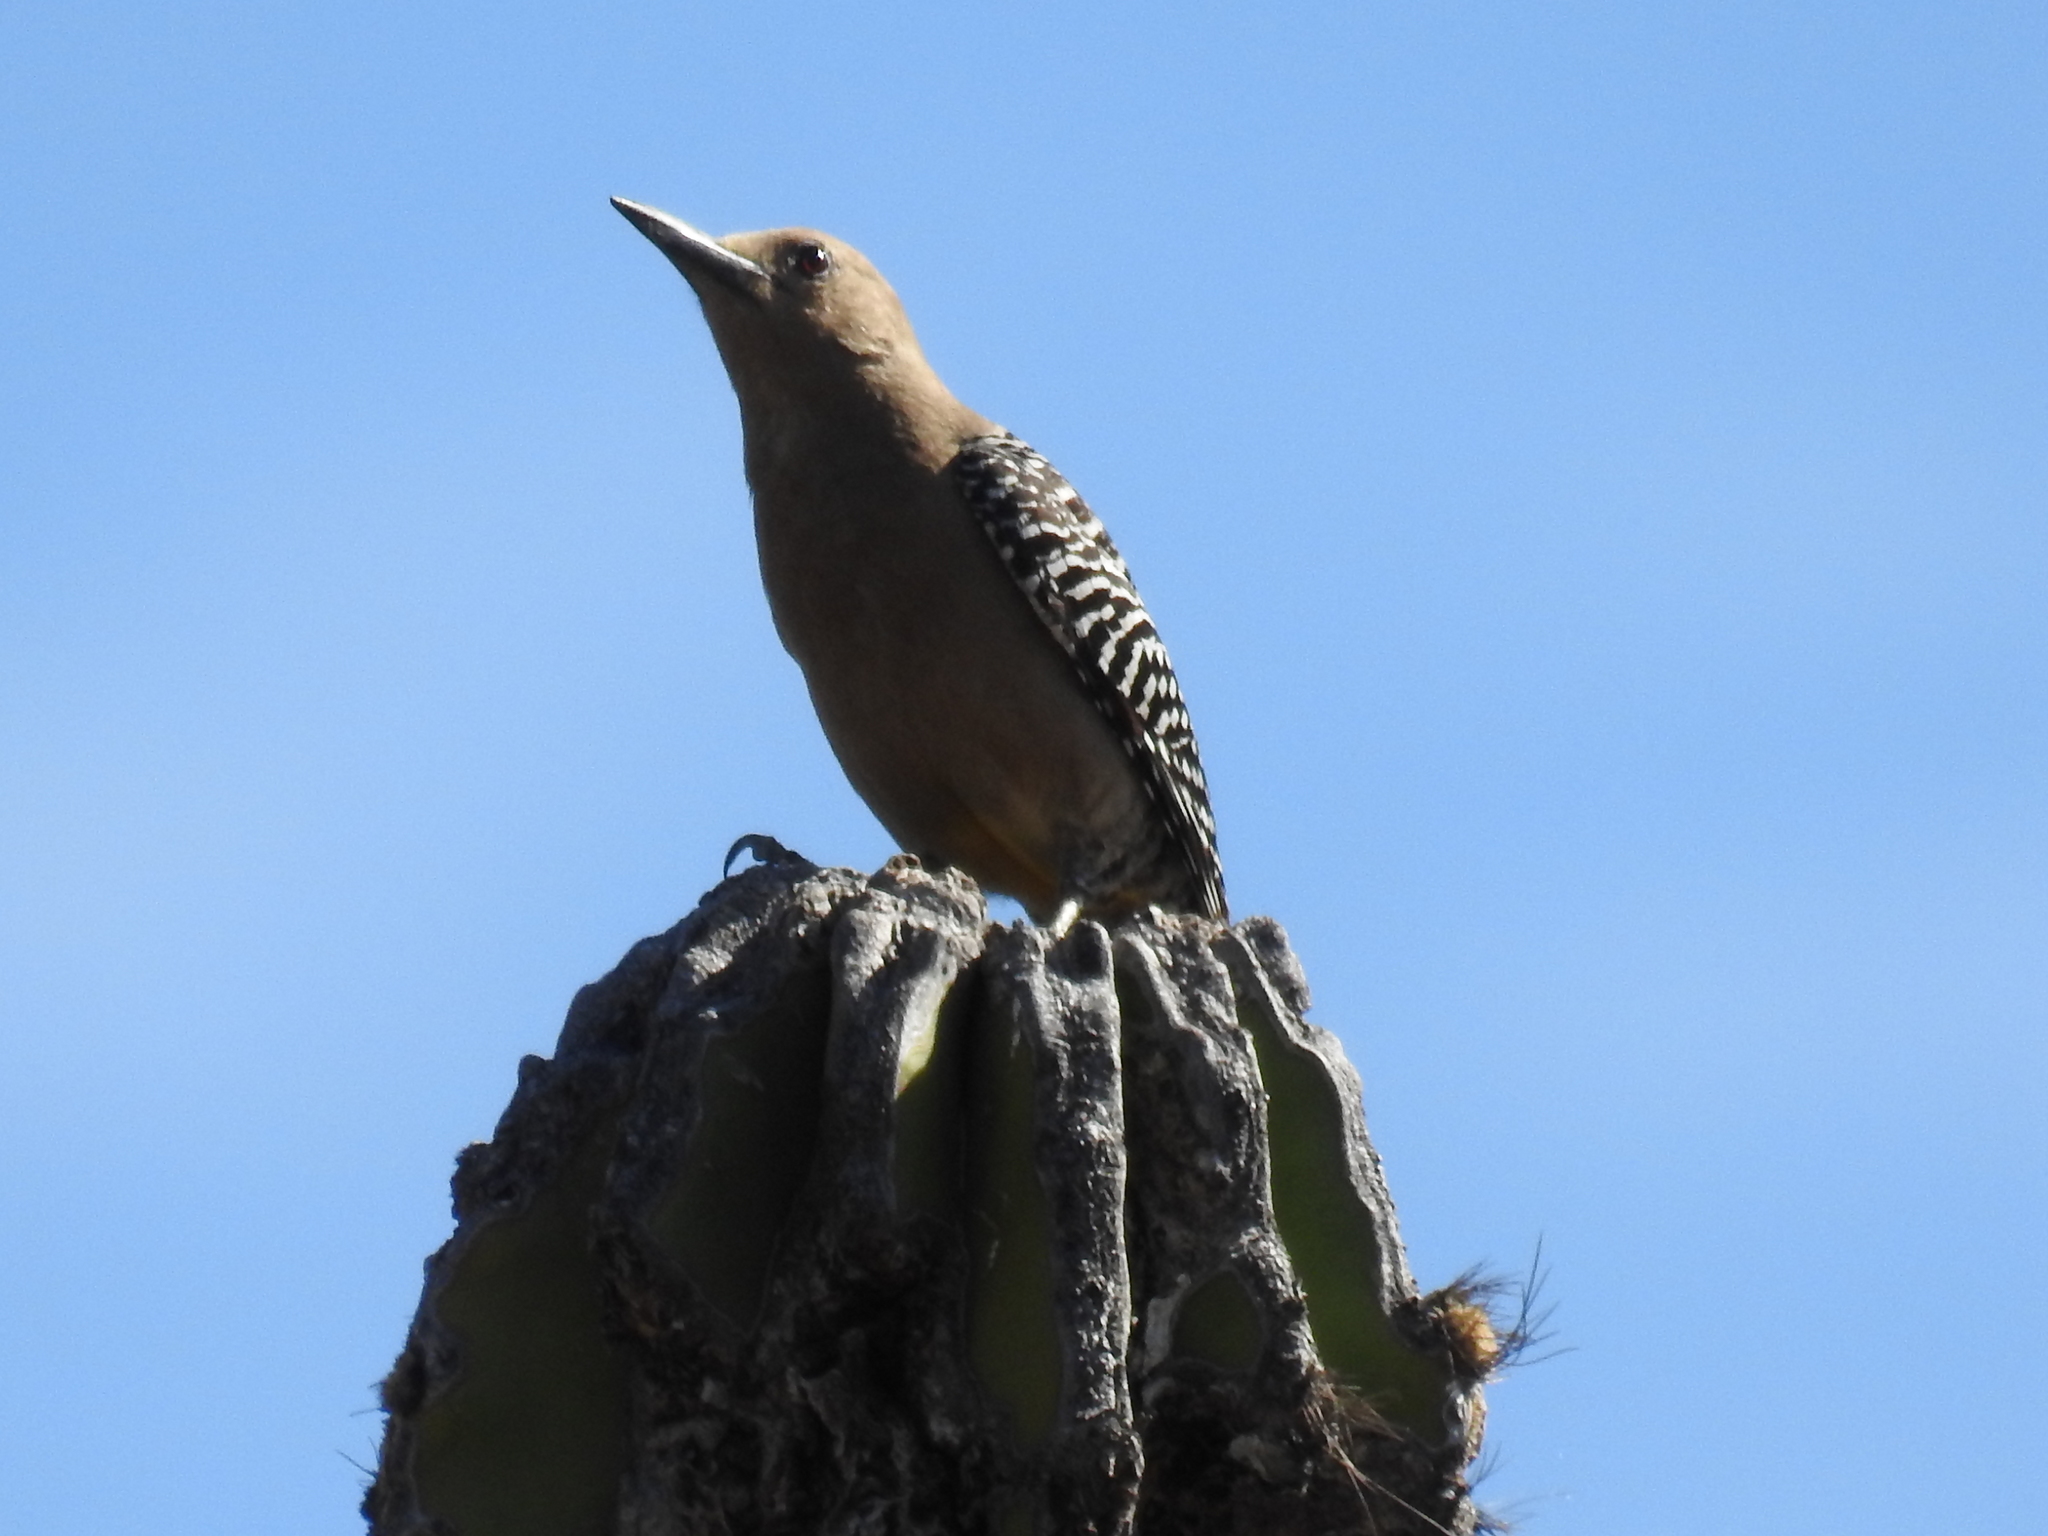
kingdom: Animalia
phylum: Chordata
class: Aves
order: Piciformes
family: Picidae
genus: Melanerpes
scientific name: Melanerpes uropygialis
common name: Gila woodpecker
